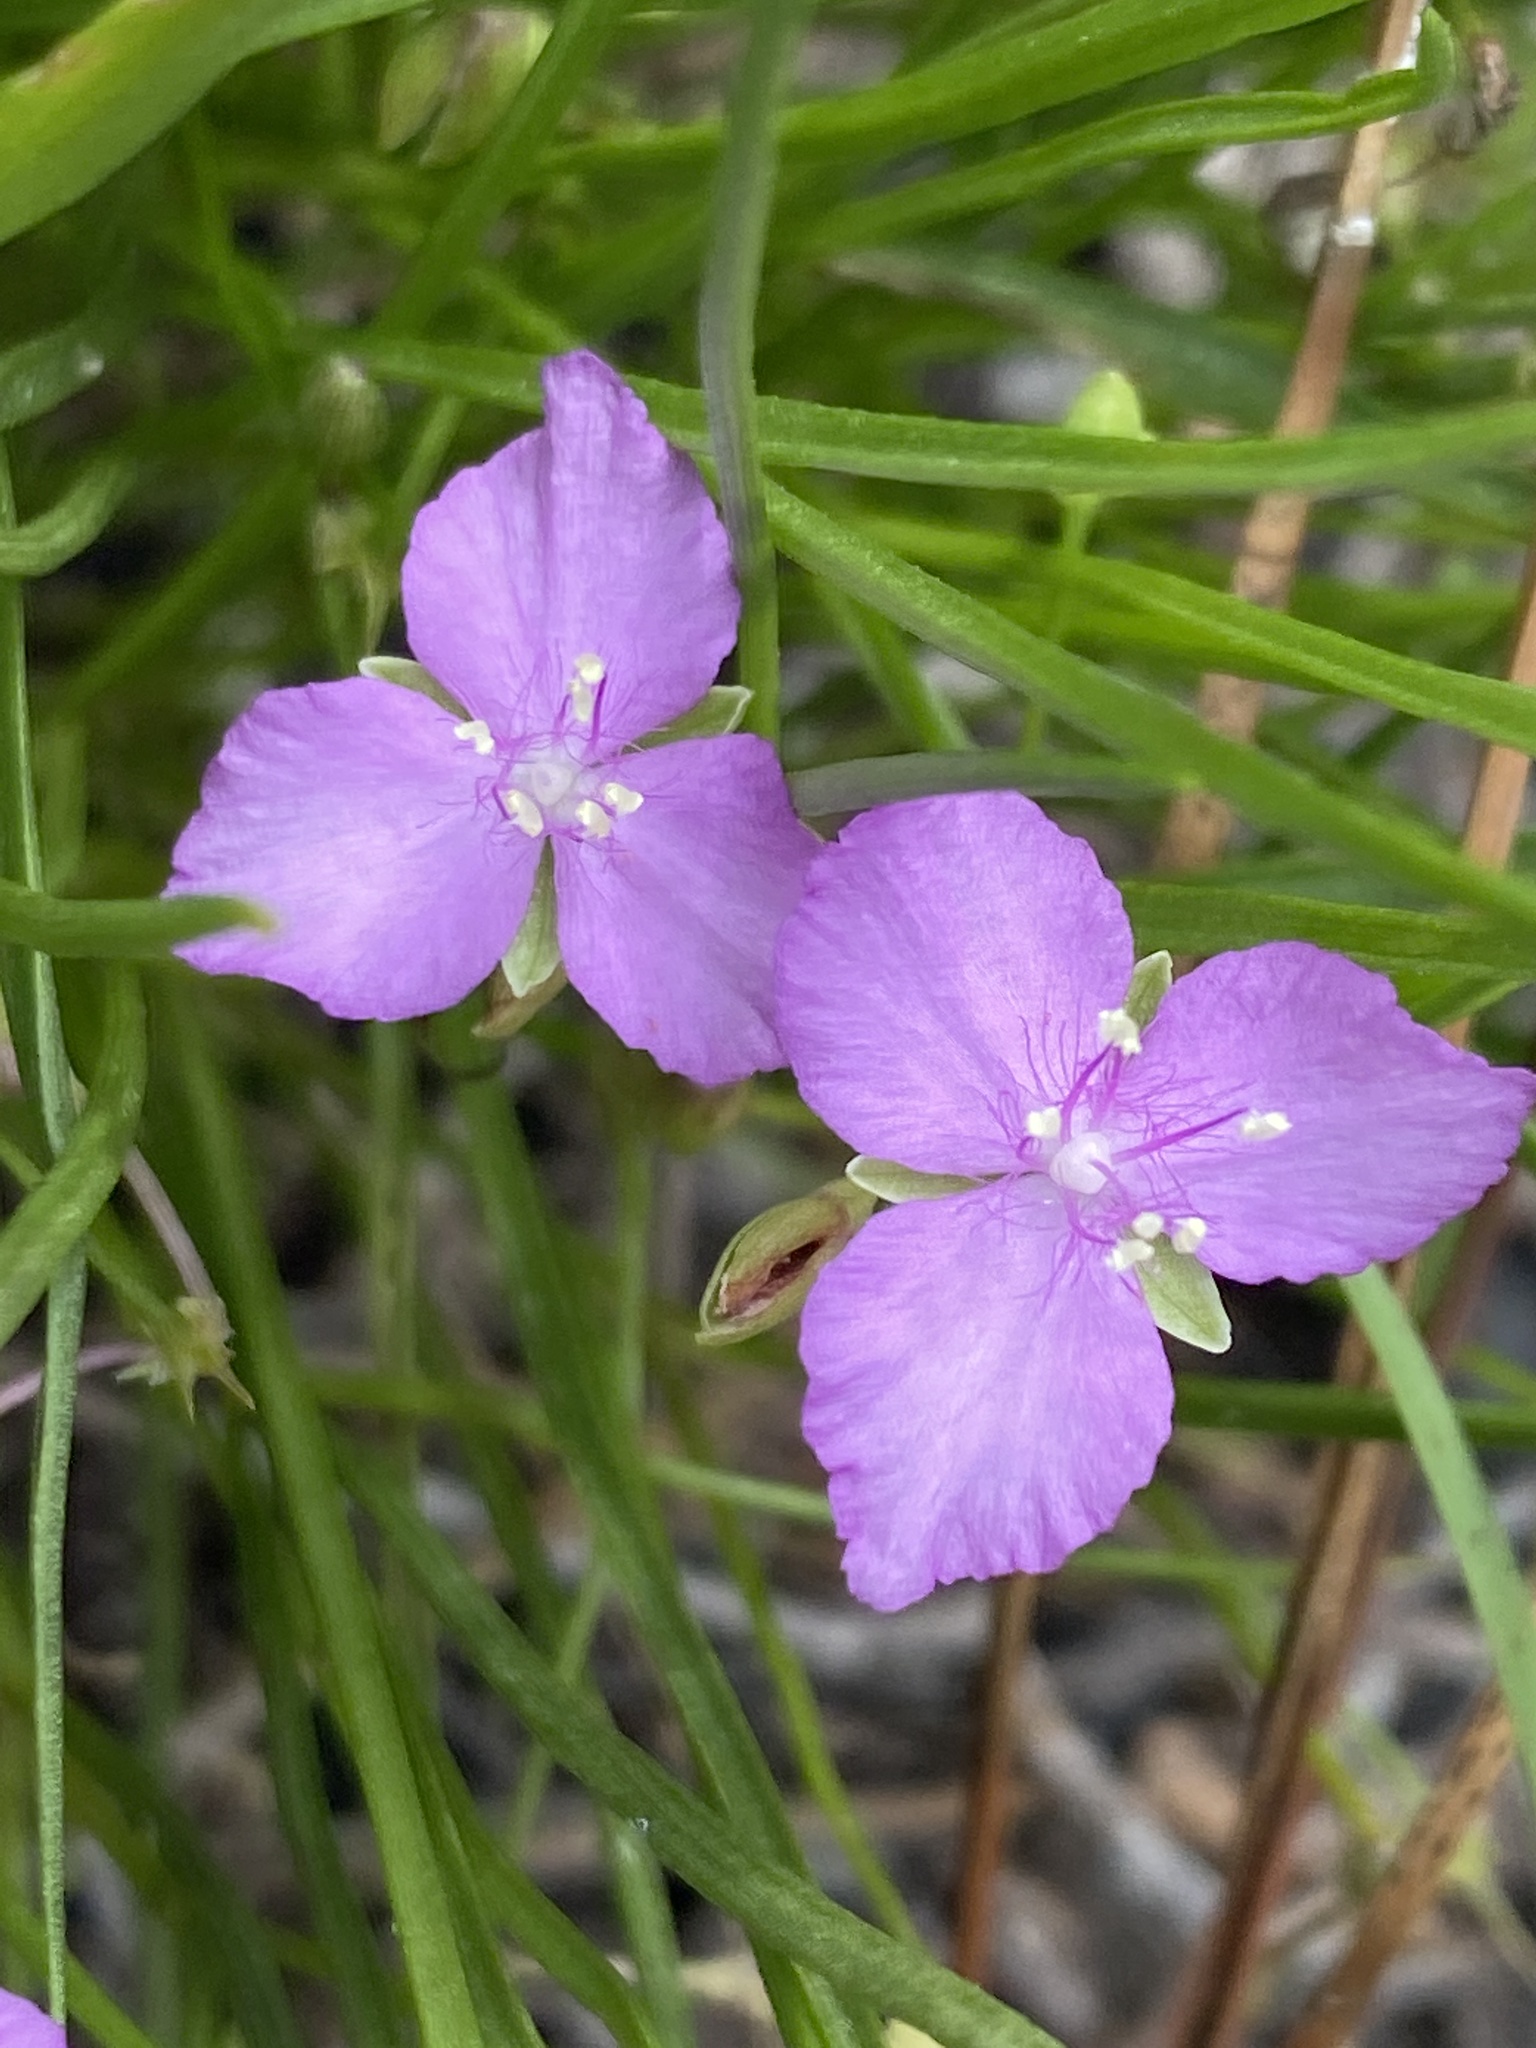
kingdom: Plantae
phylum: Tracheophyta
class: Liliopsida
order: Commelinales
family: Commelinaceae
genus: Callisia
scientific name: Callisia graminea
